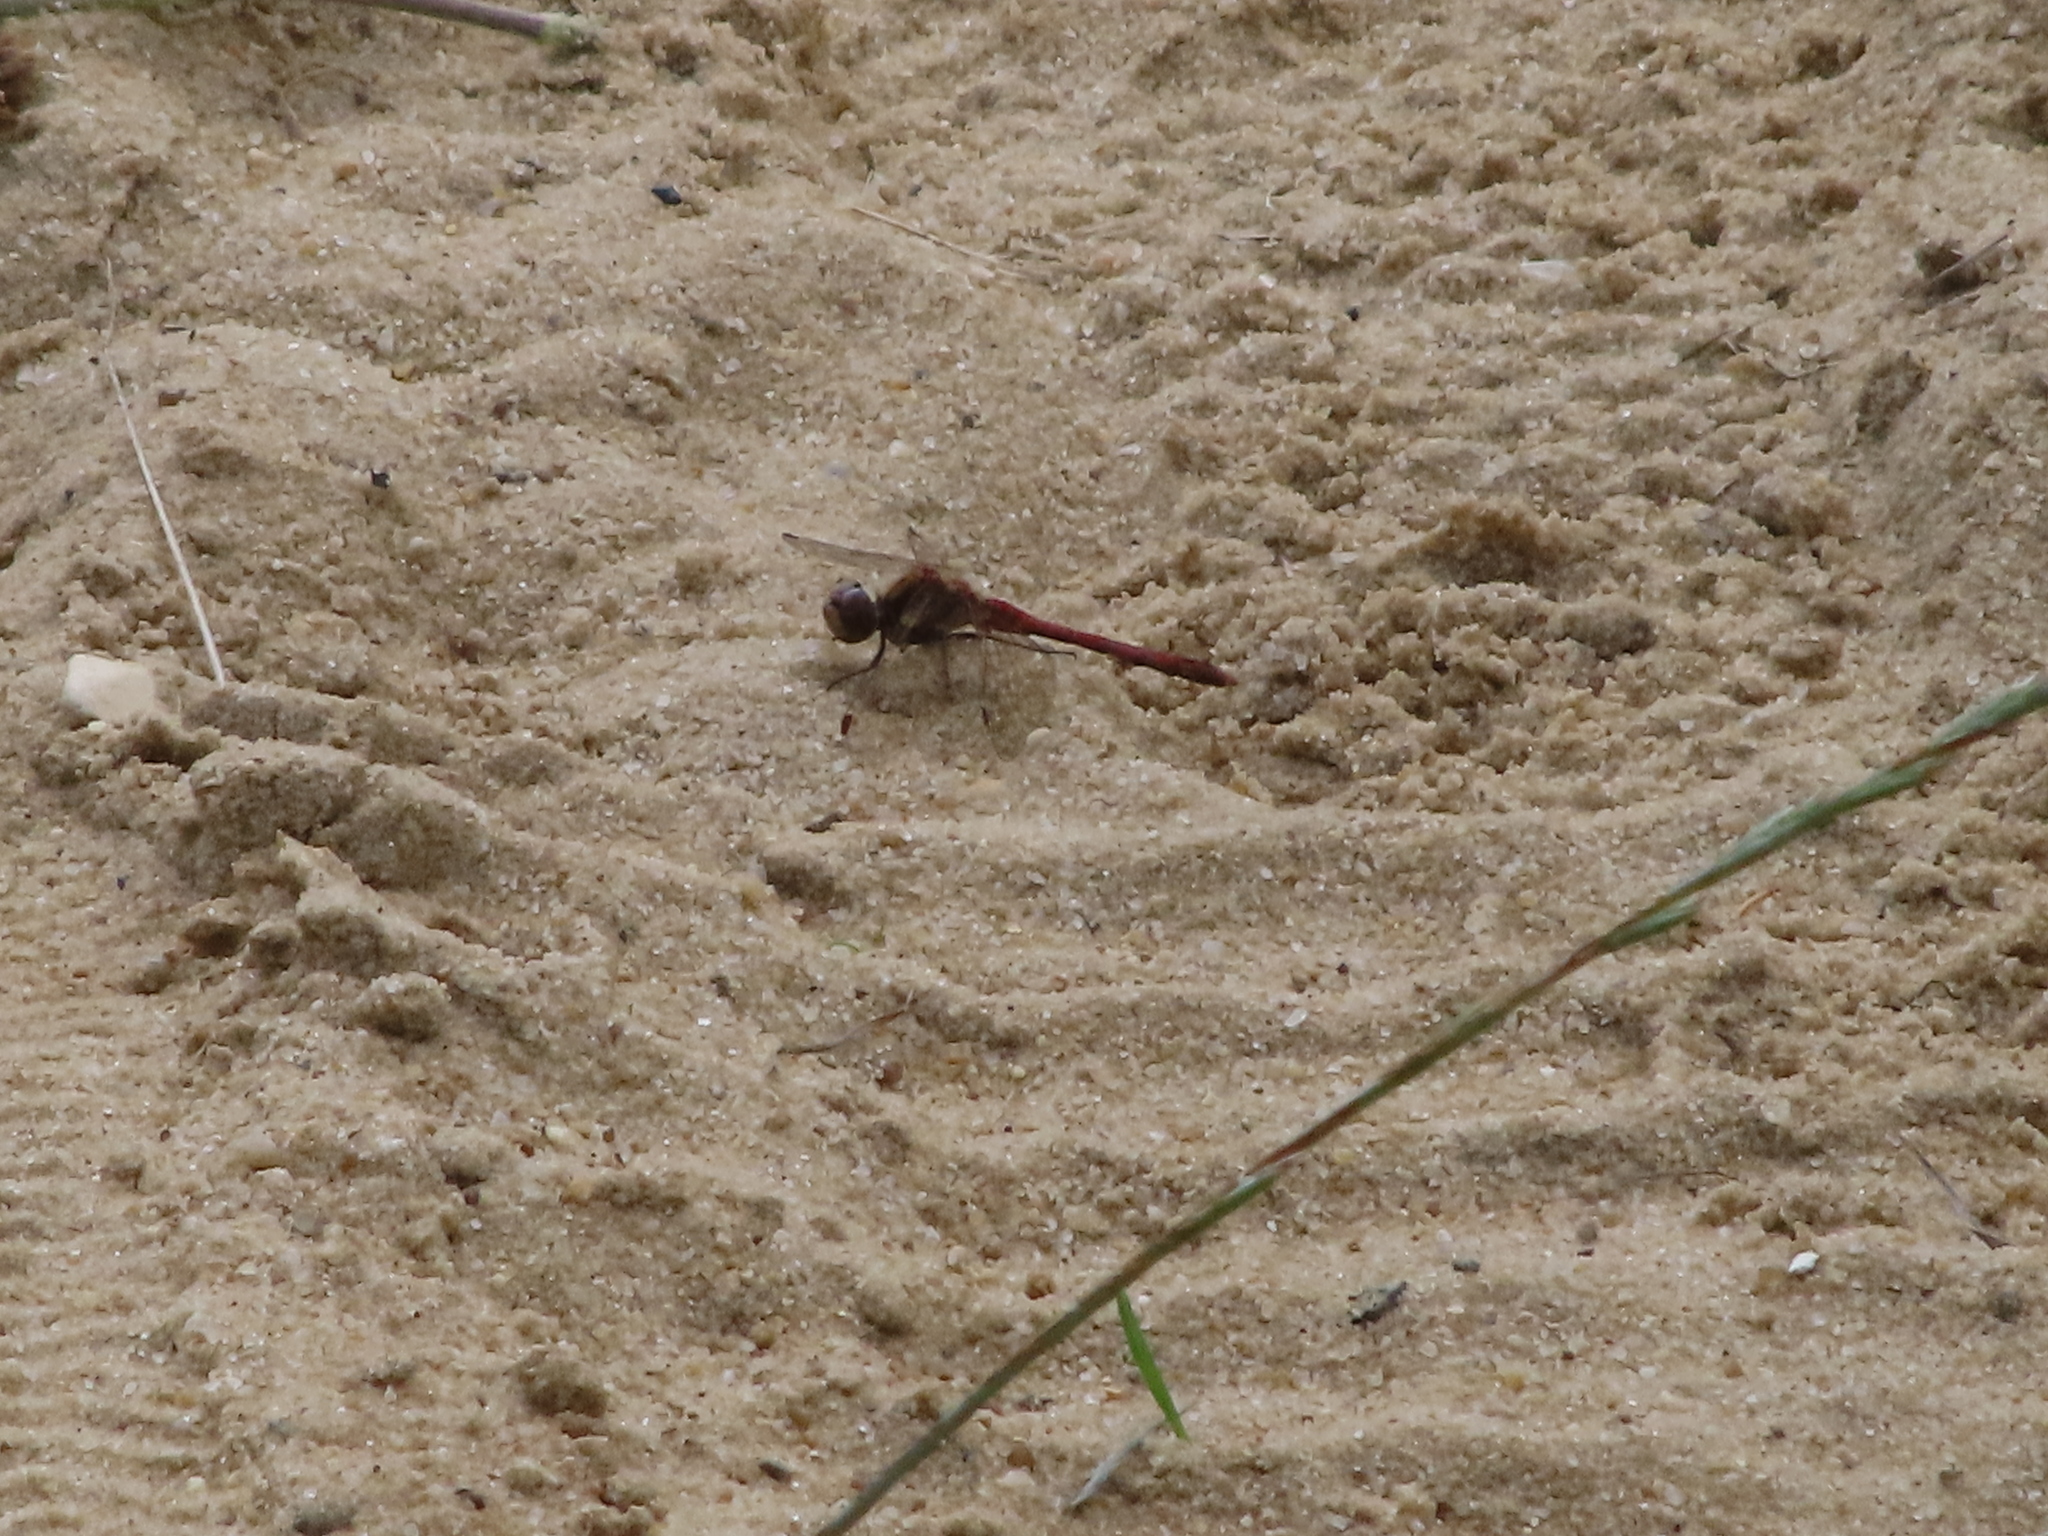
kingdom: Animalia
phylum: Arthropoda
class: Insecta
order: Odonata
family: Libellulidae
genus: Sympetrum
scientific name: Sympetrum striolatum
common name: Common darter
